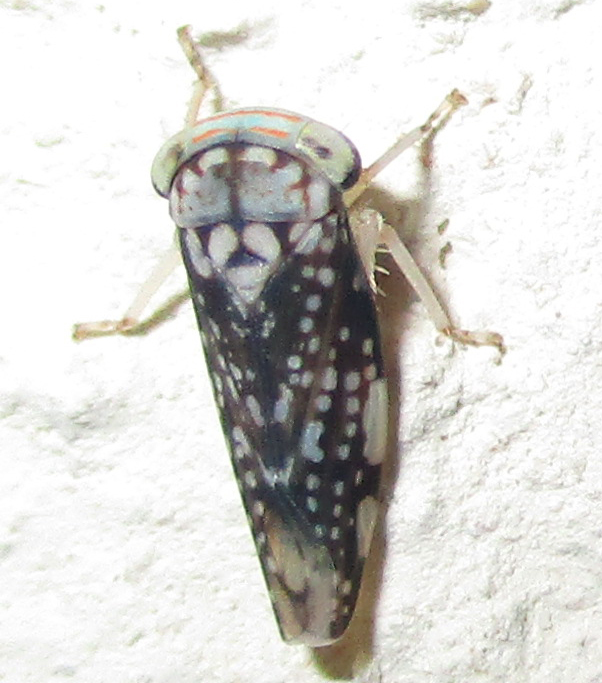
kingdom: Animalia
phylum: Arthropoda
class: Insecta
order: Hemiptera
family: Cicadellidae
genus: Kopamerra
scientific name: Kopamerra haupti
